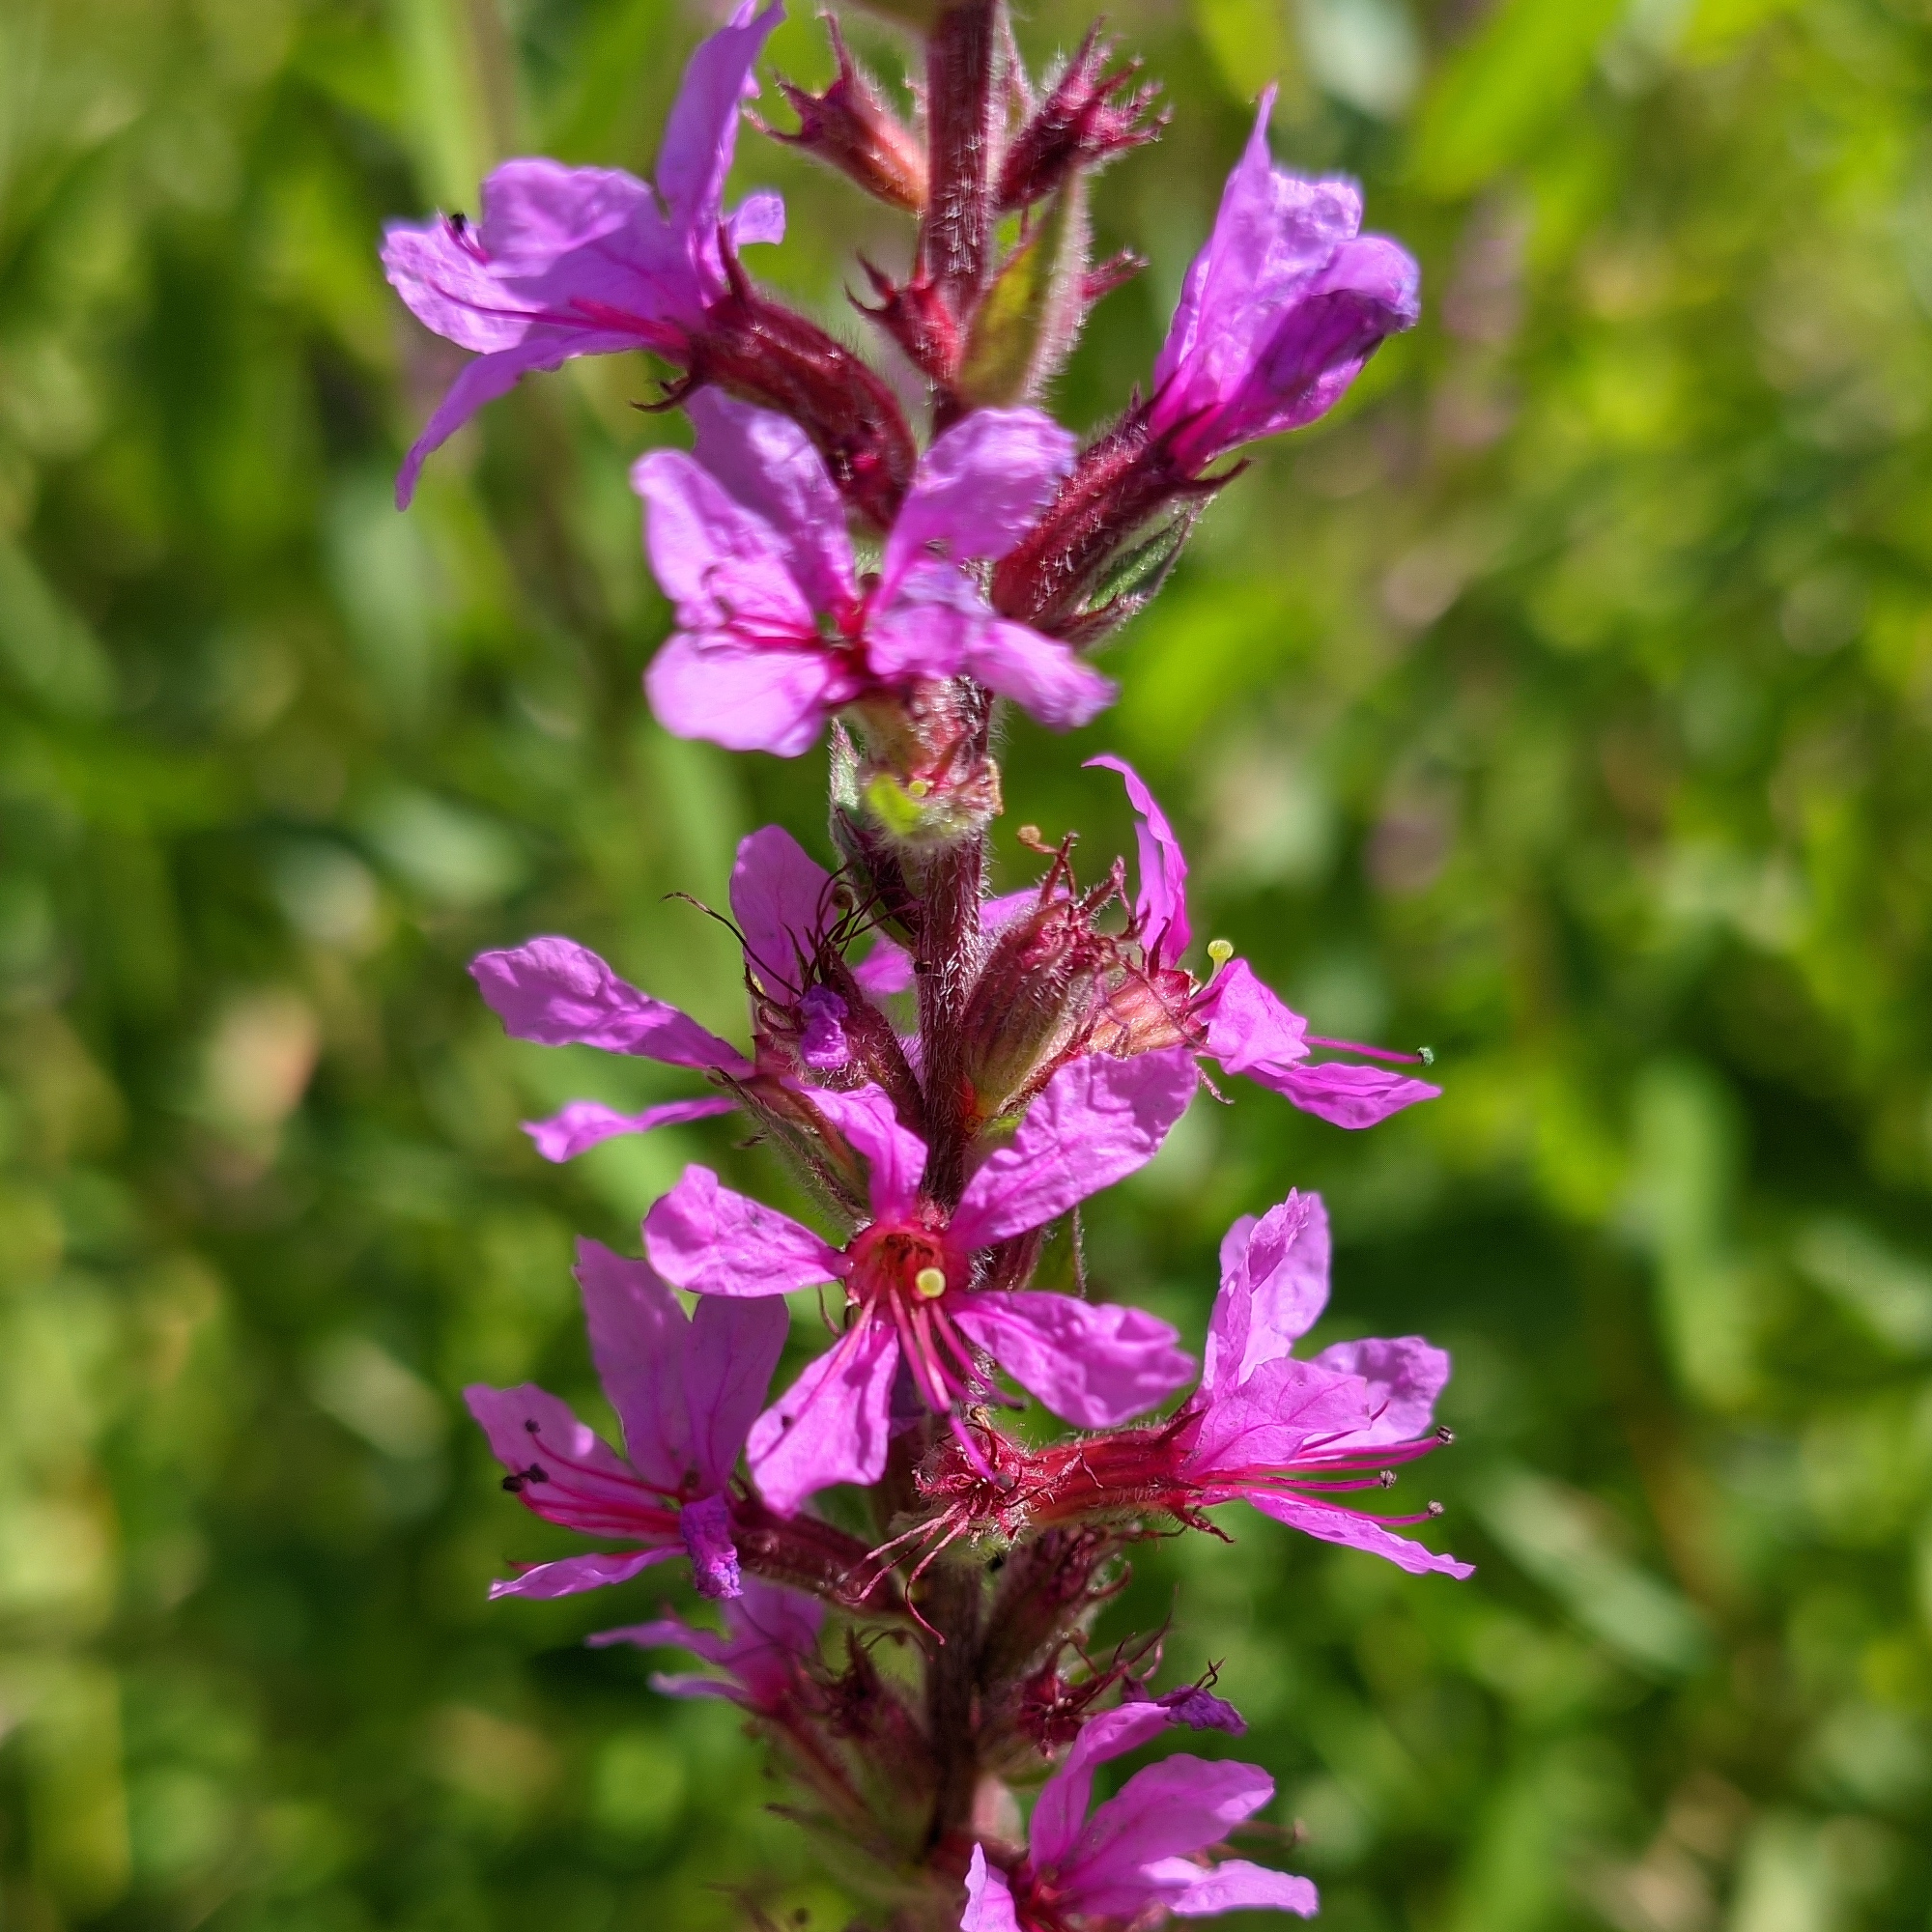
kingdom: Plantae
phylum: Tracheophyta
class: Magnoliopsida
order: Myrtales
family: Lythraceae
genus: Lythrum
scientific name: Lythrum salicaria
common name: Purple loosestrife
